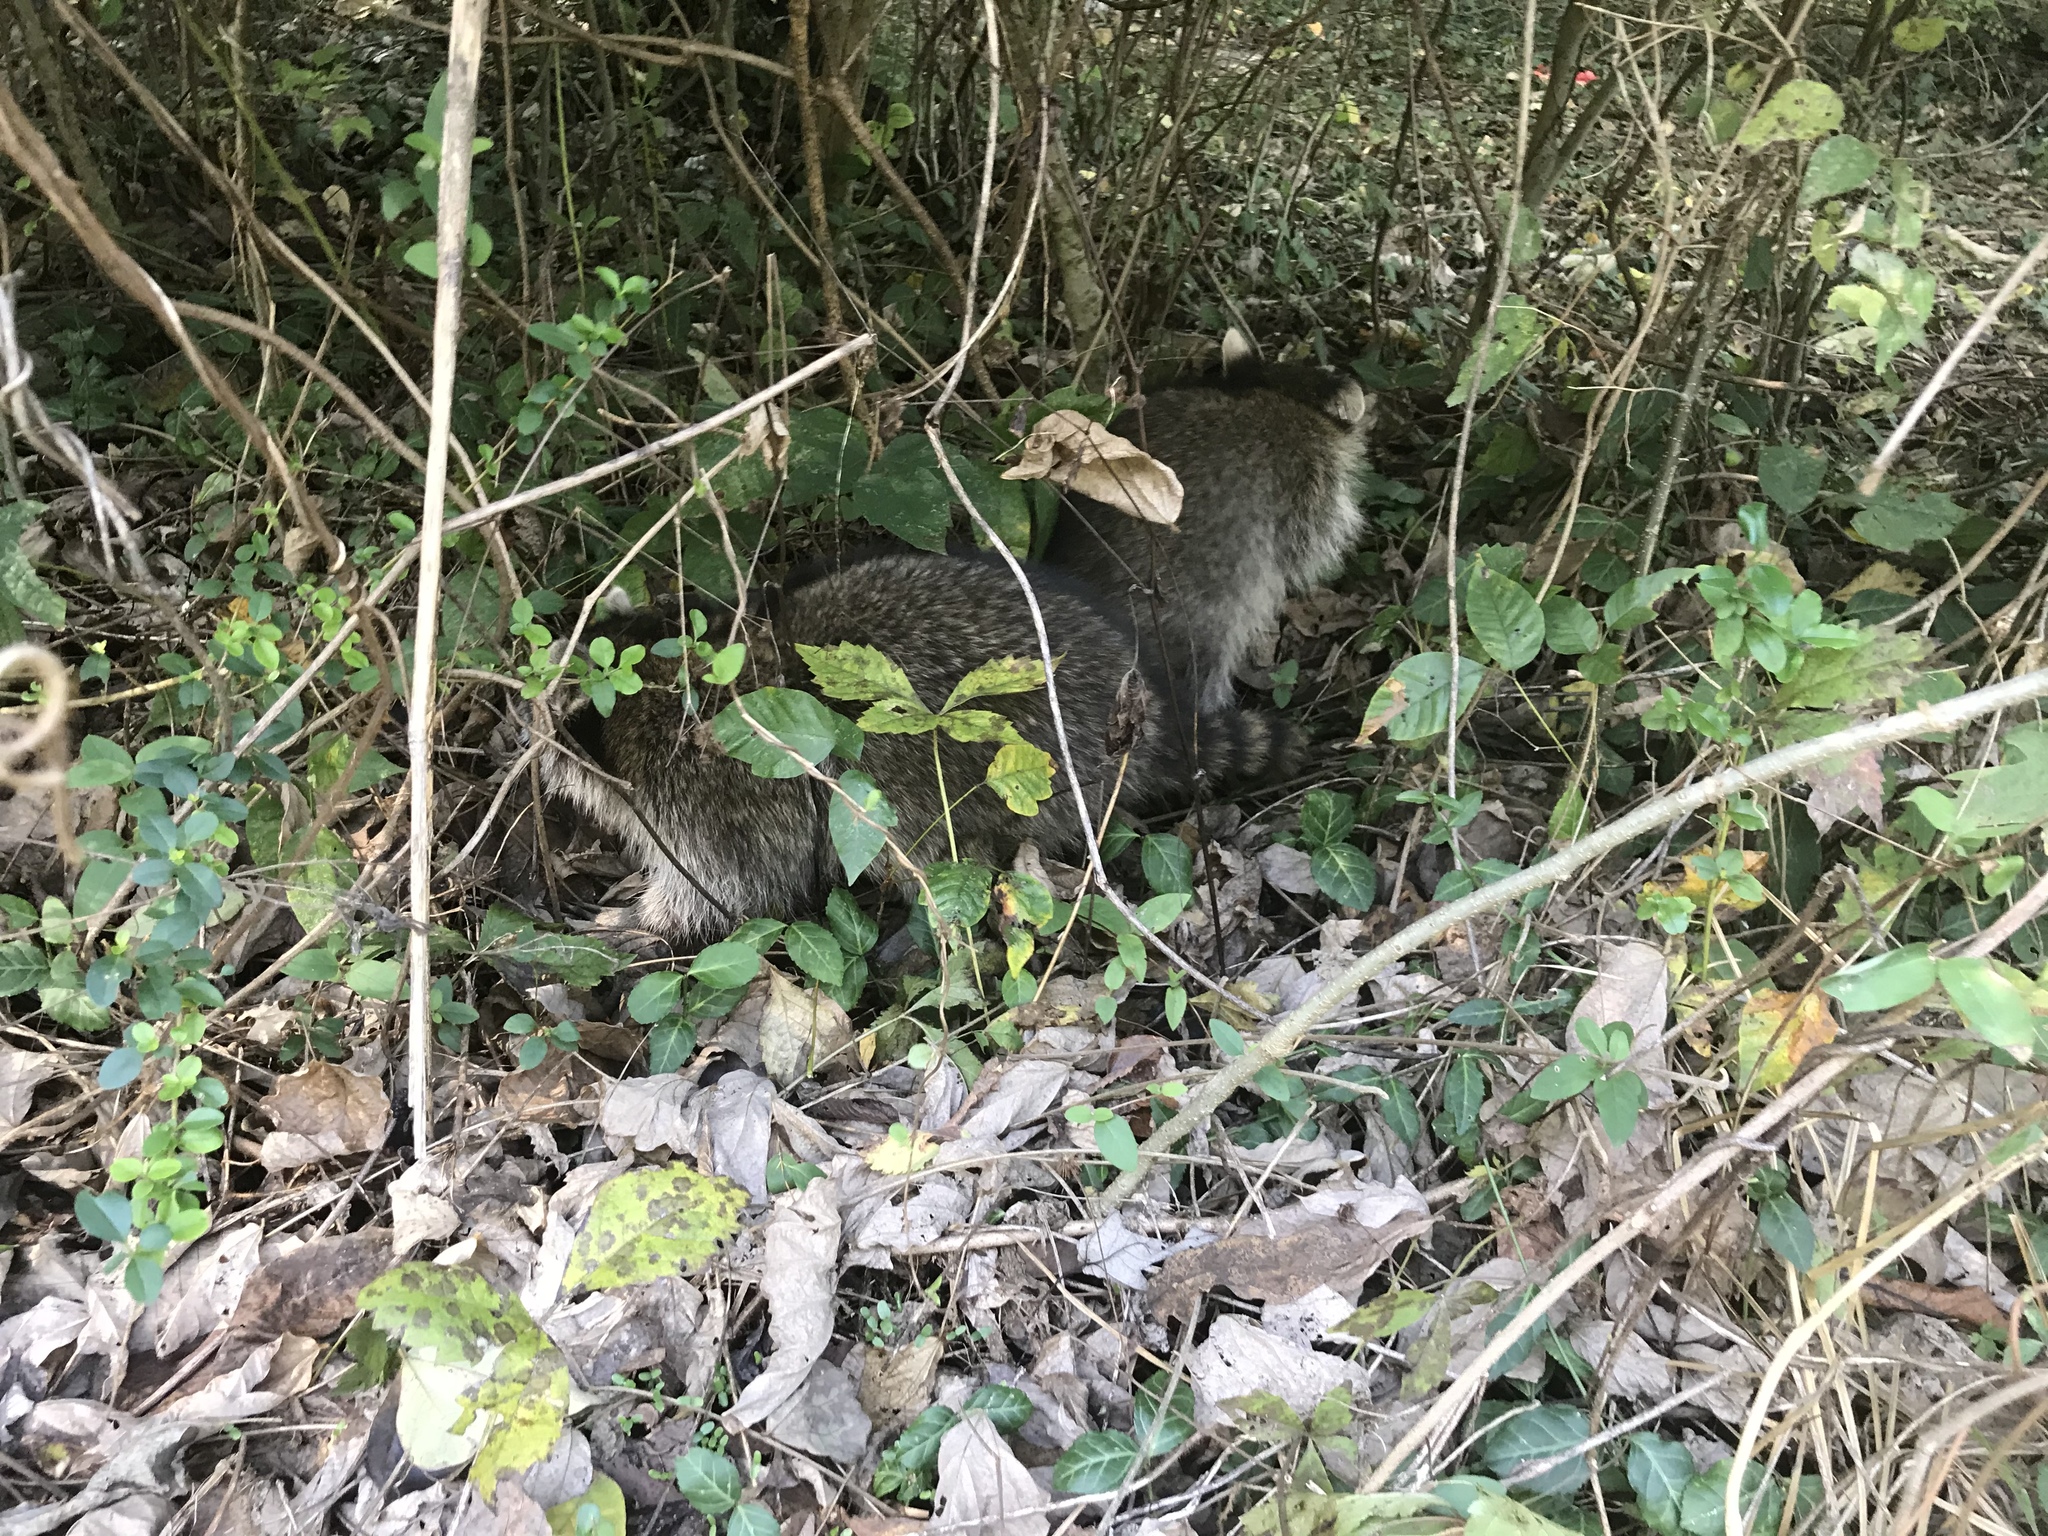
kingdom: Animalia
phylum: Chordata
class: Mammalia
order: Carnivora
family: Procyonidae
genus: Procyon
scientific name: Procyon lotor
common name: Raccoon
